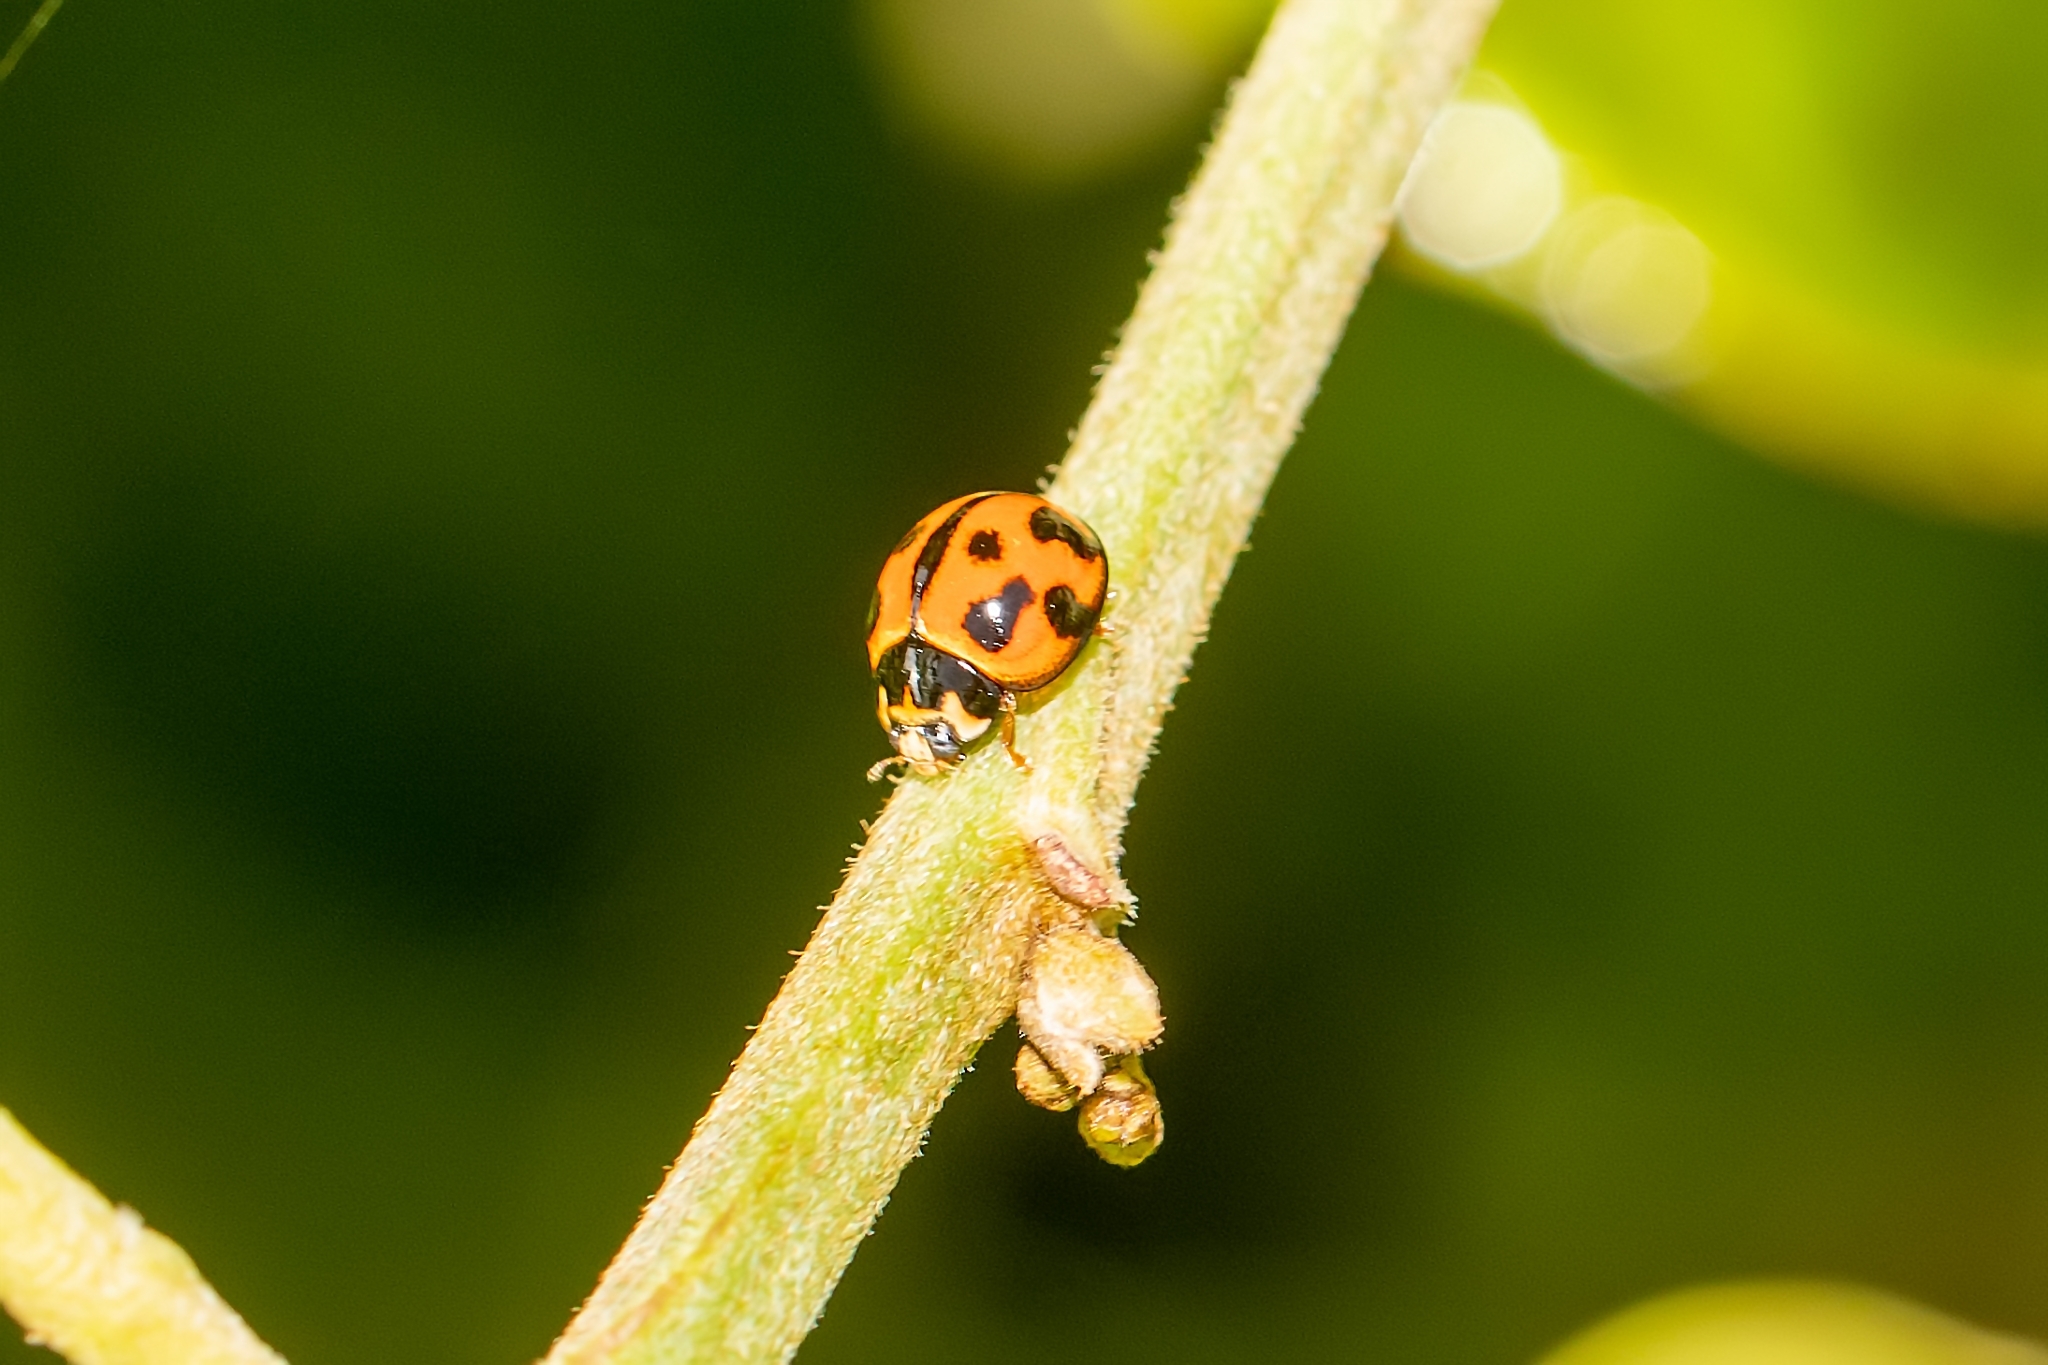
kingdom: Animalia
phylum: Arthropoda
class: Insecta
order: Coleoptera
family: Coccinellidae
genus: Coelophora
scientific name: Coelophora inaequalis
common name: Common australian lady beetle
